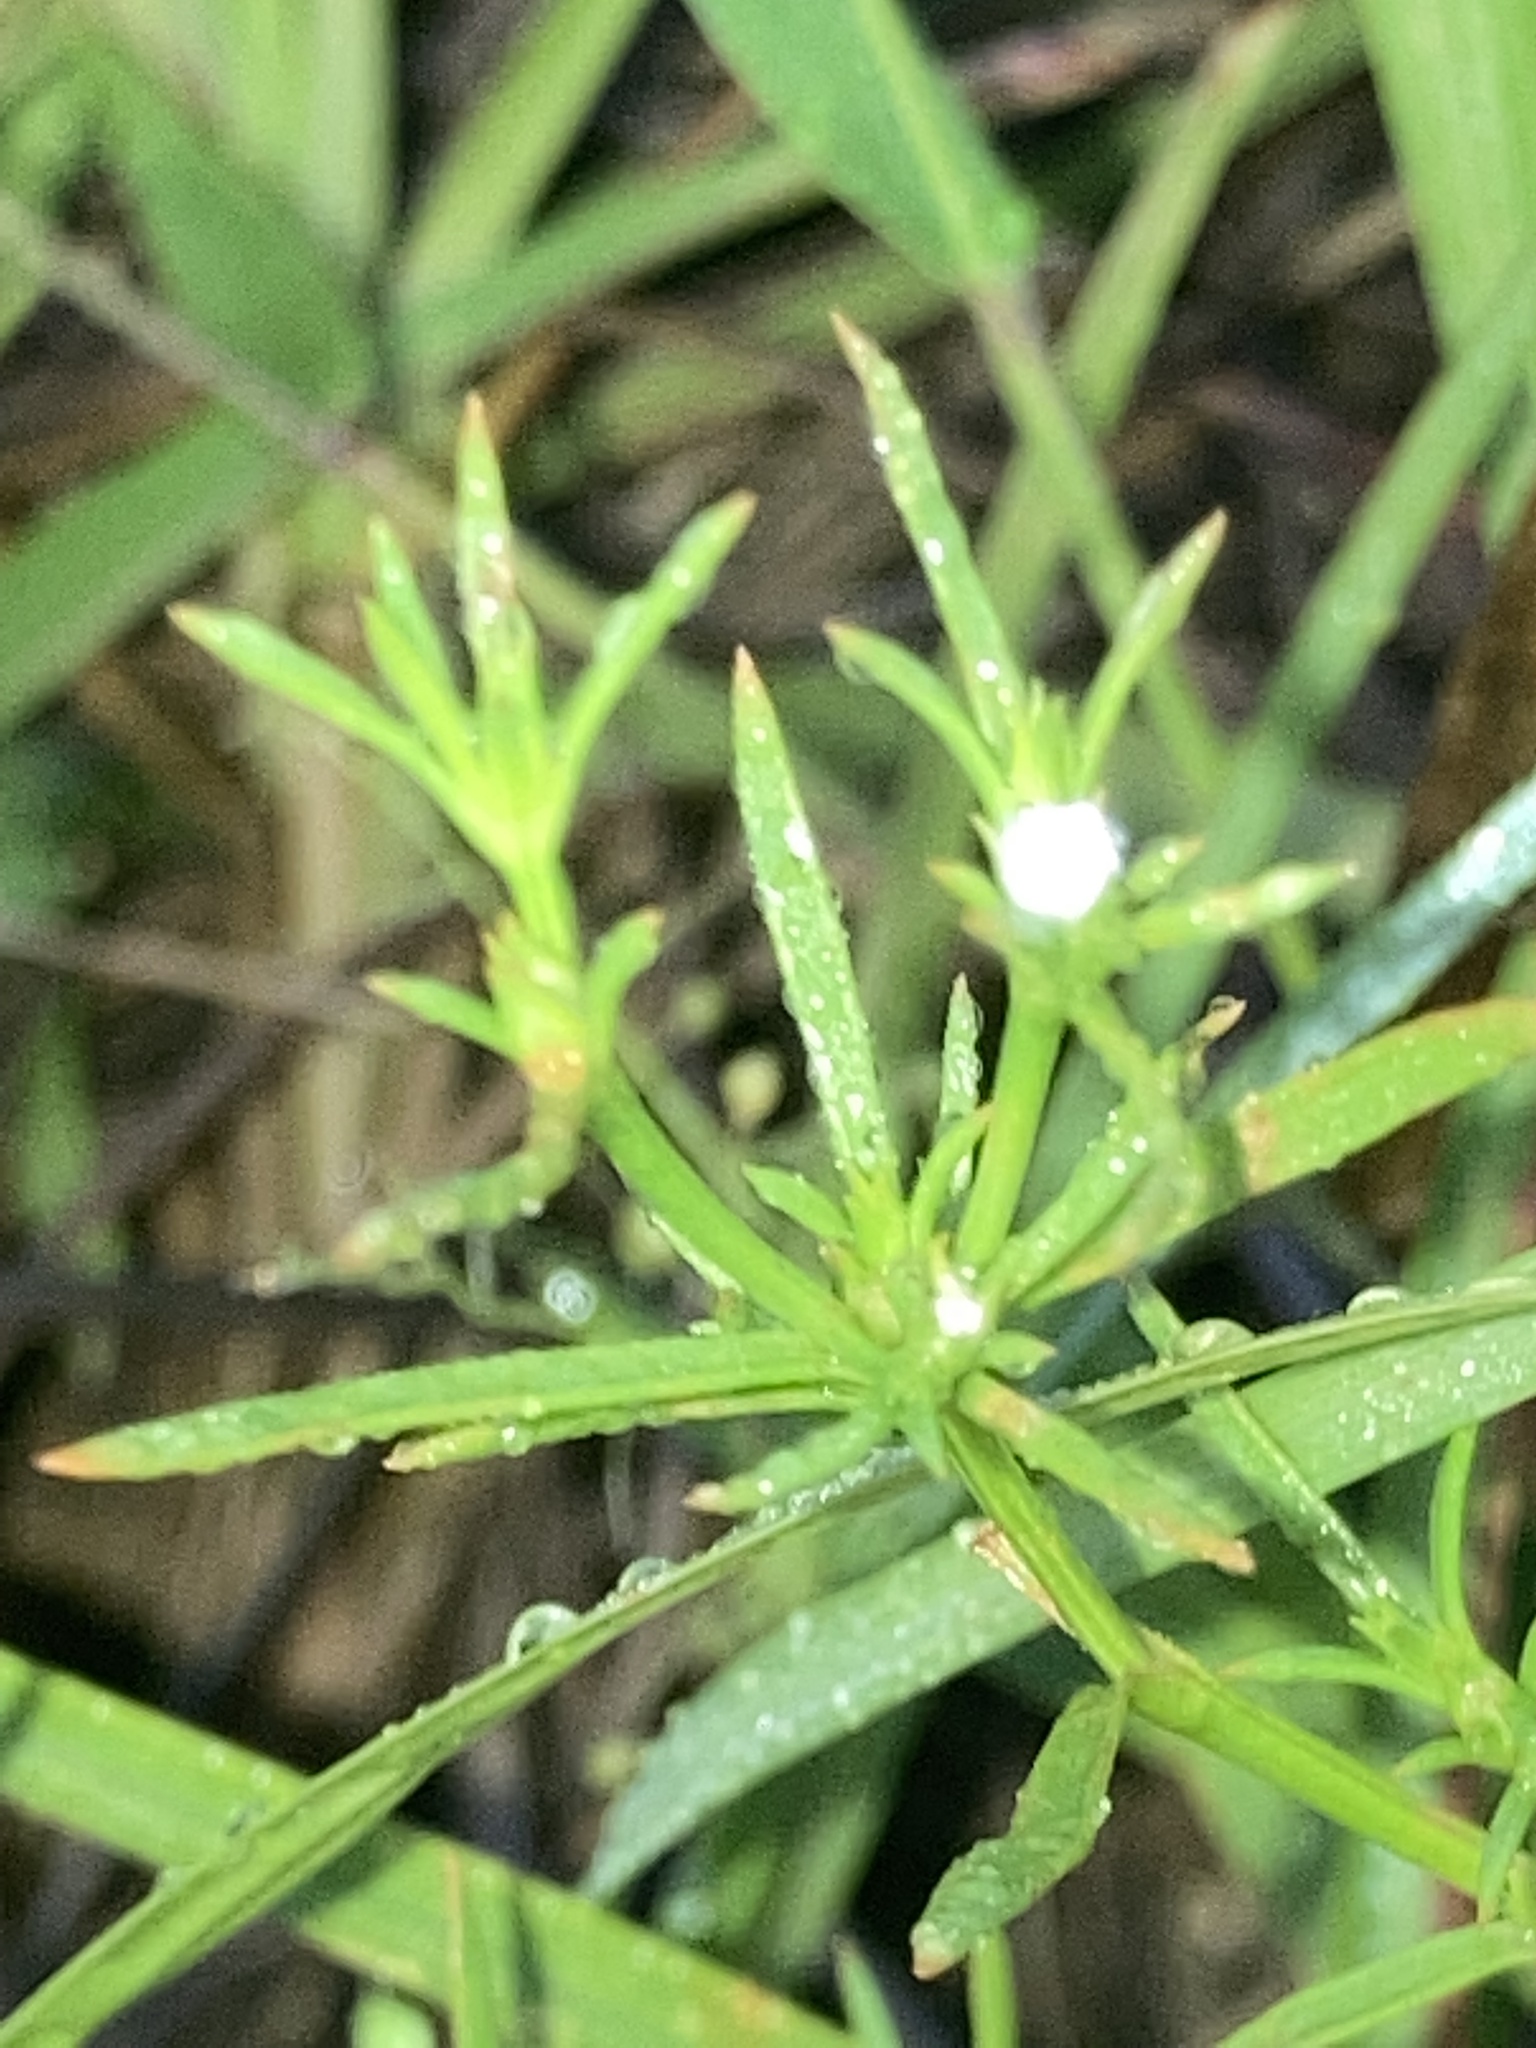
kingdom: Plantae
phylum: Tracheophyta
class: Magnoliopsida
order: Lamiales
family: Tetrachondraceae
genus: Polypremum
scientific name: Polypremum procumbens
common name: Juniper-leaf
